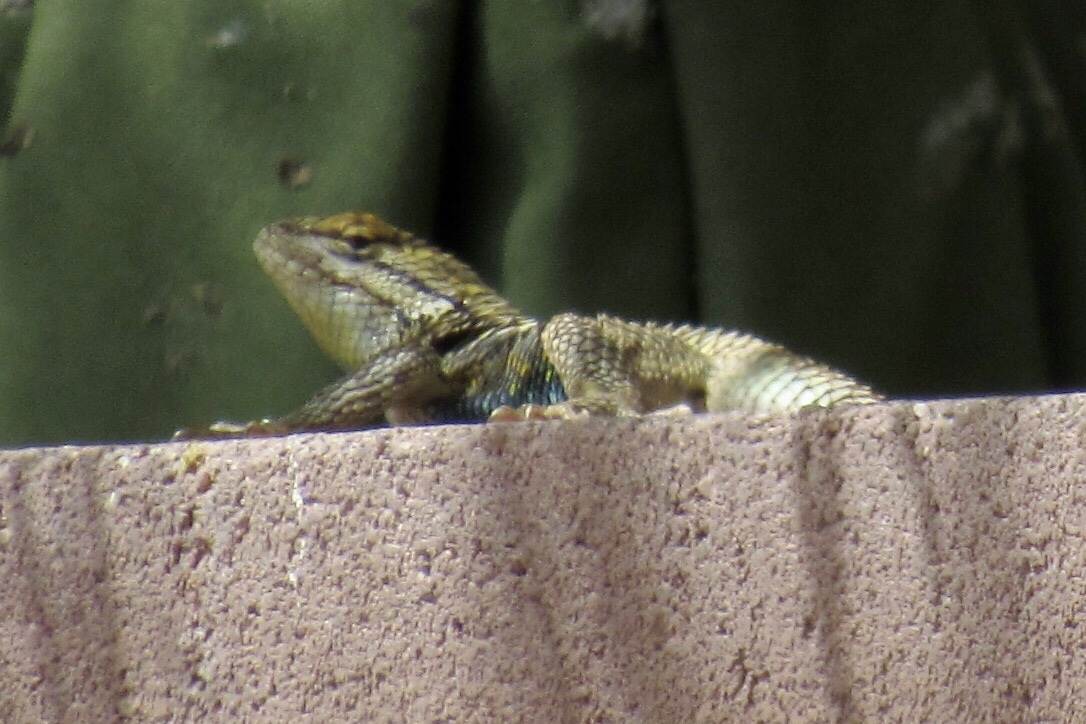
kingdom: Animalia
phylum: Chordata
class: Squamata
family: Phrynosomatidae
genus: Sceloporus
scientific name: Sceloporus magister
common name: Desert spiny lizard
